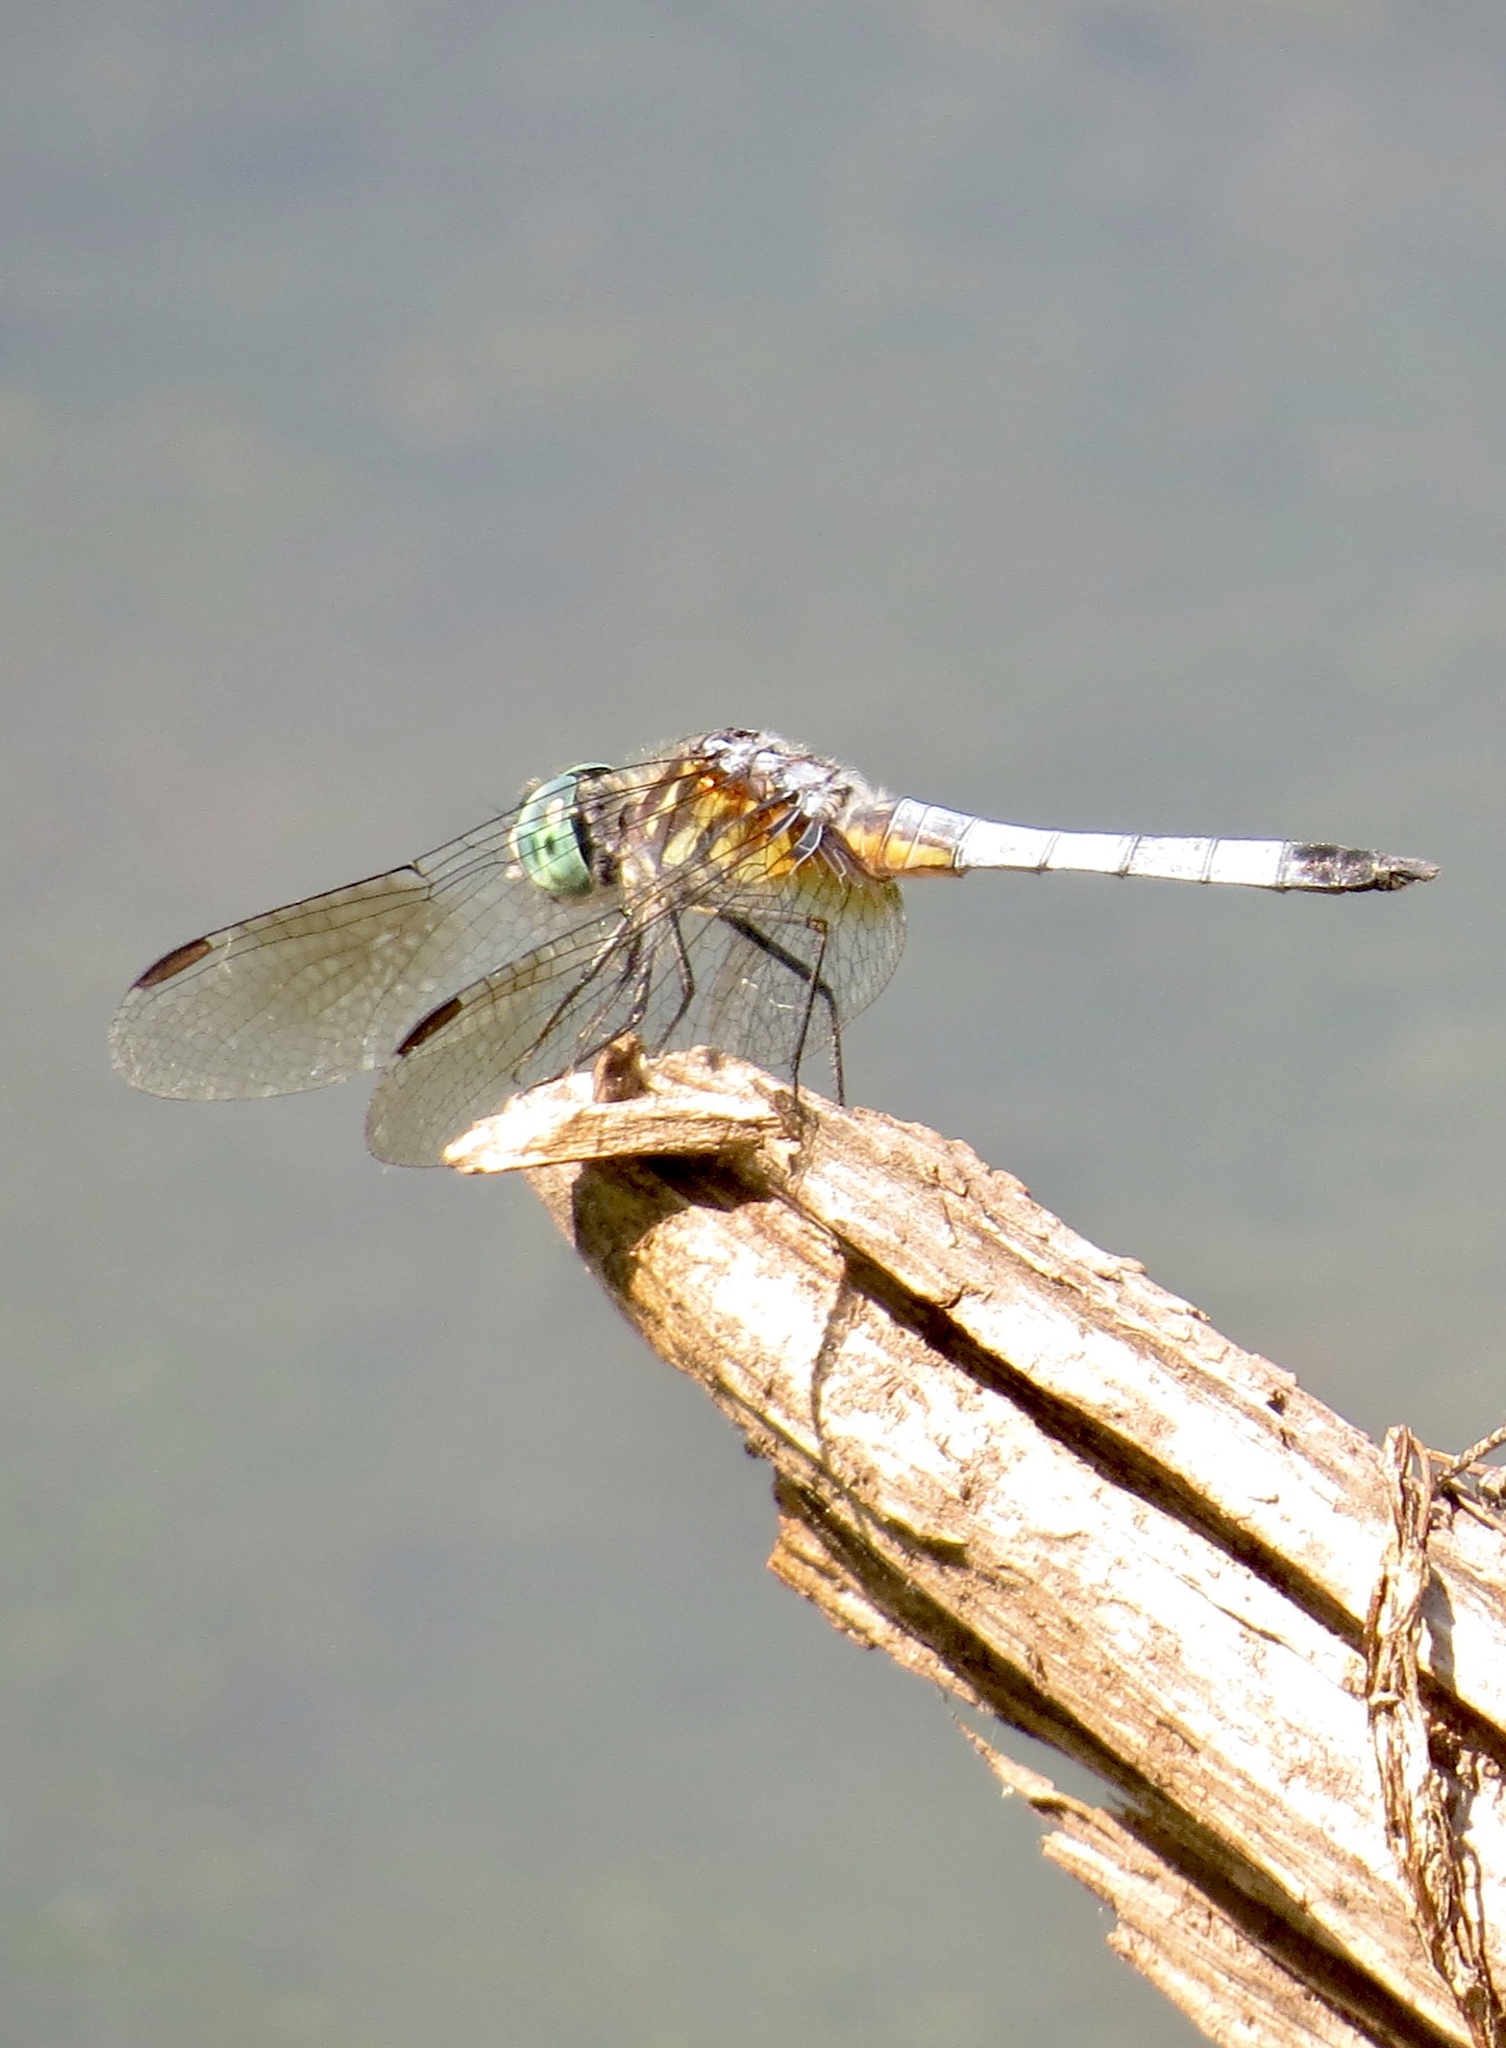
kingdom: Animalia
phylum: Arthropoda
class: Insecta
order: Odonata
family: Libellulidae
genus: Pachydiplax
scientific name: Pachydiplax longipennis
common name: Blue dasher
